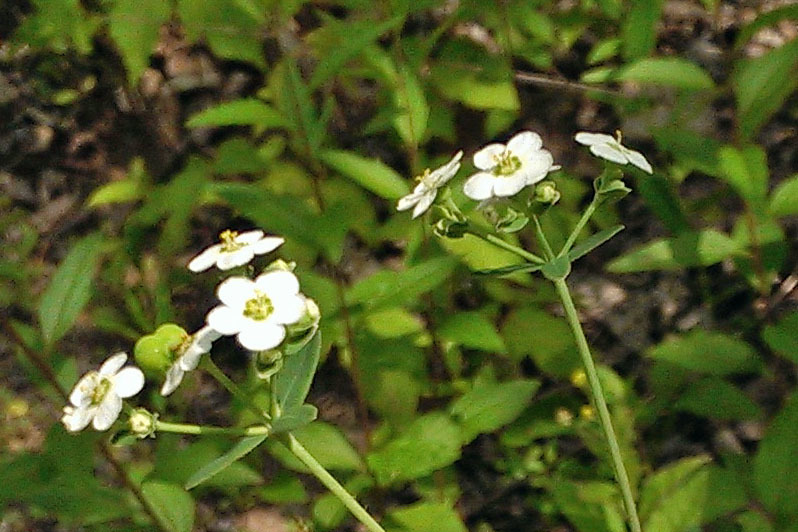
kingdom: Plantae
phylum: Tracheophyta
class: Magnoliopsida
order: Malpighiales
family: Euphorbiaceae
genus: Euphorbia
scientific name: Euphorbia corollata
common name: Flowering spurge
